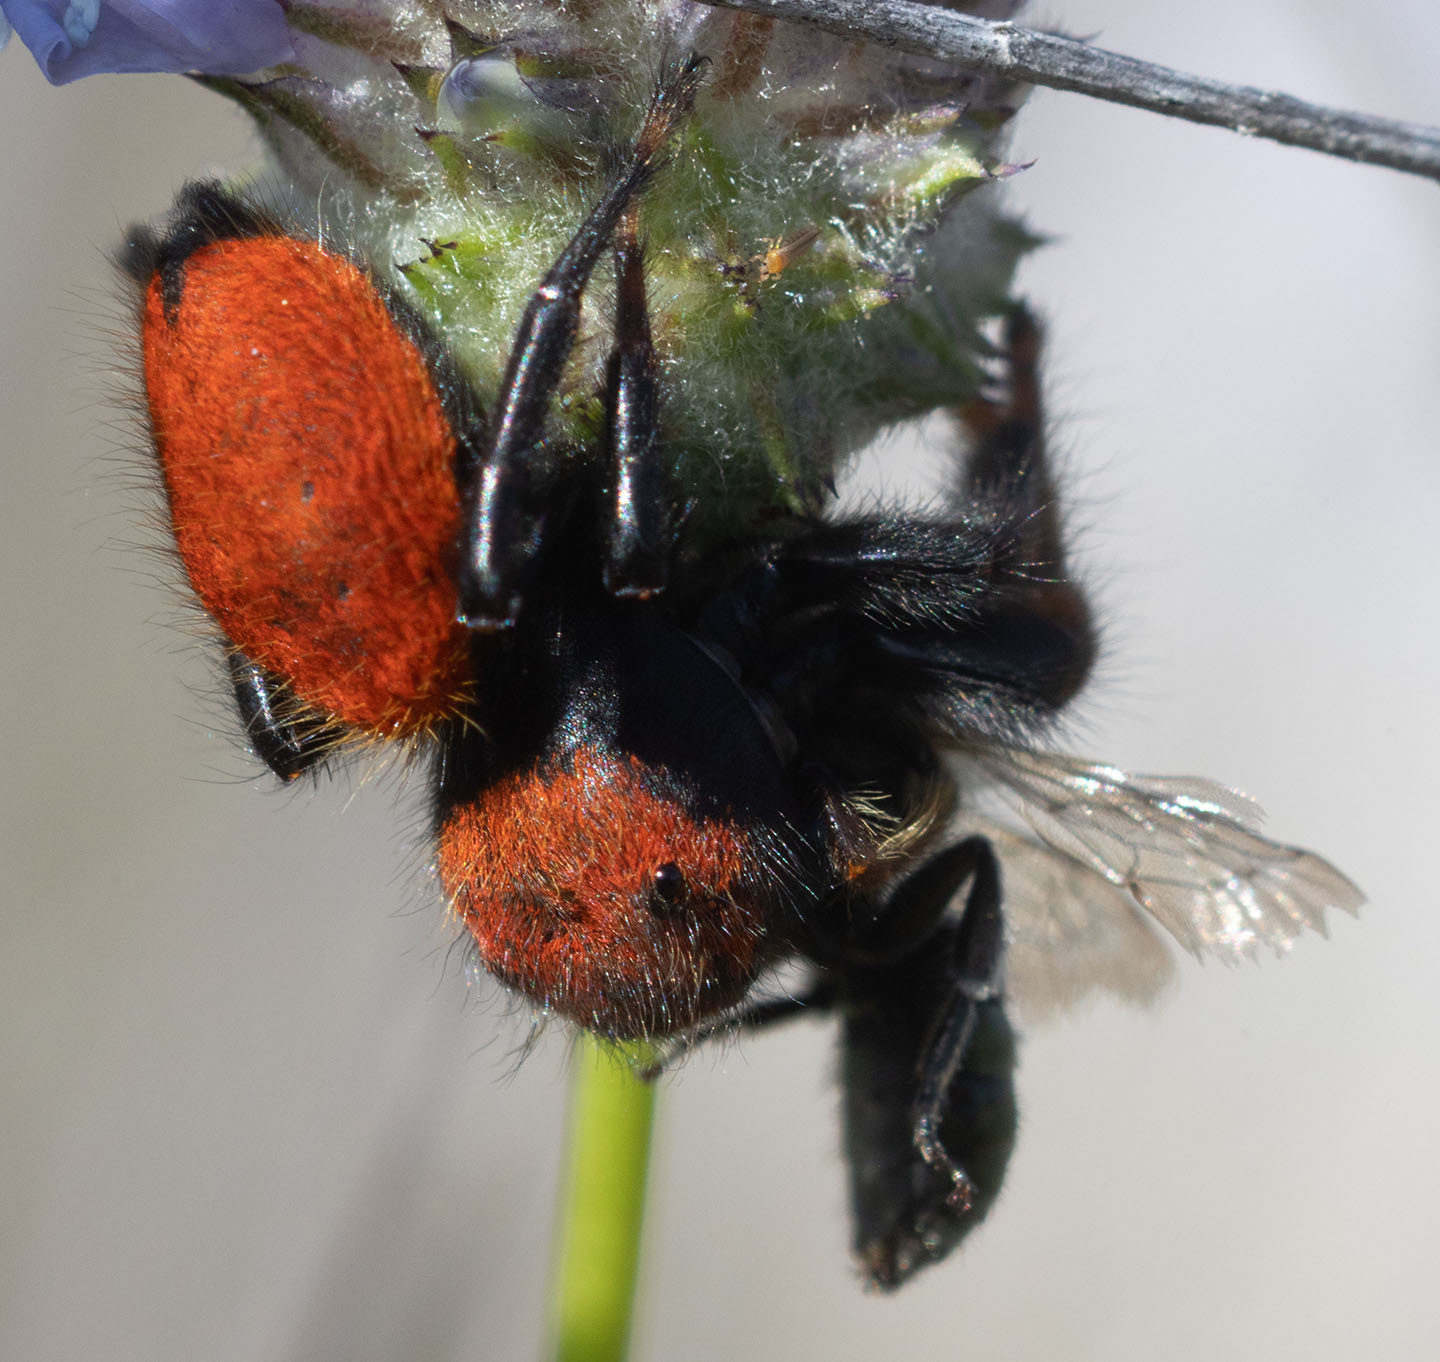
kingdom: Animalia
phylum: Arthropoda
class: Arachnida
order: Araneae
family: Salticidae
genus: Phidippus
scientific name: Phidippus nikites
